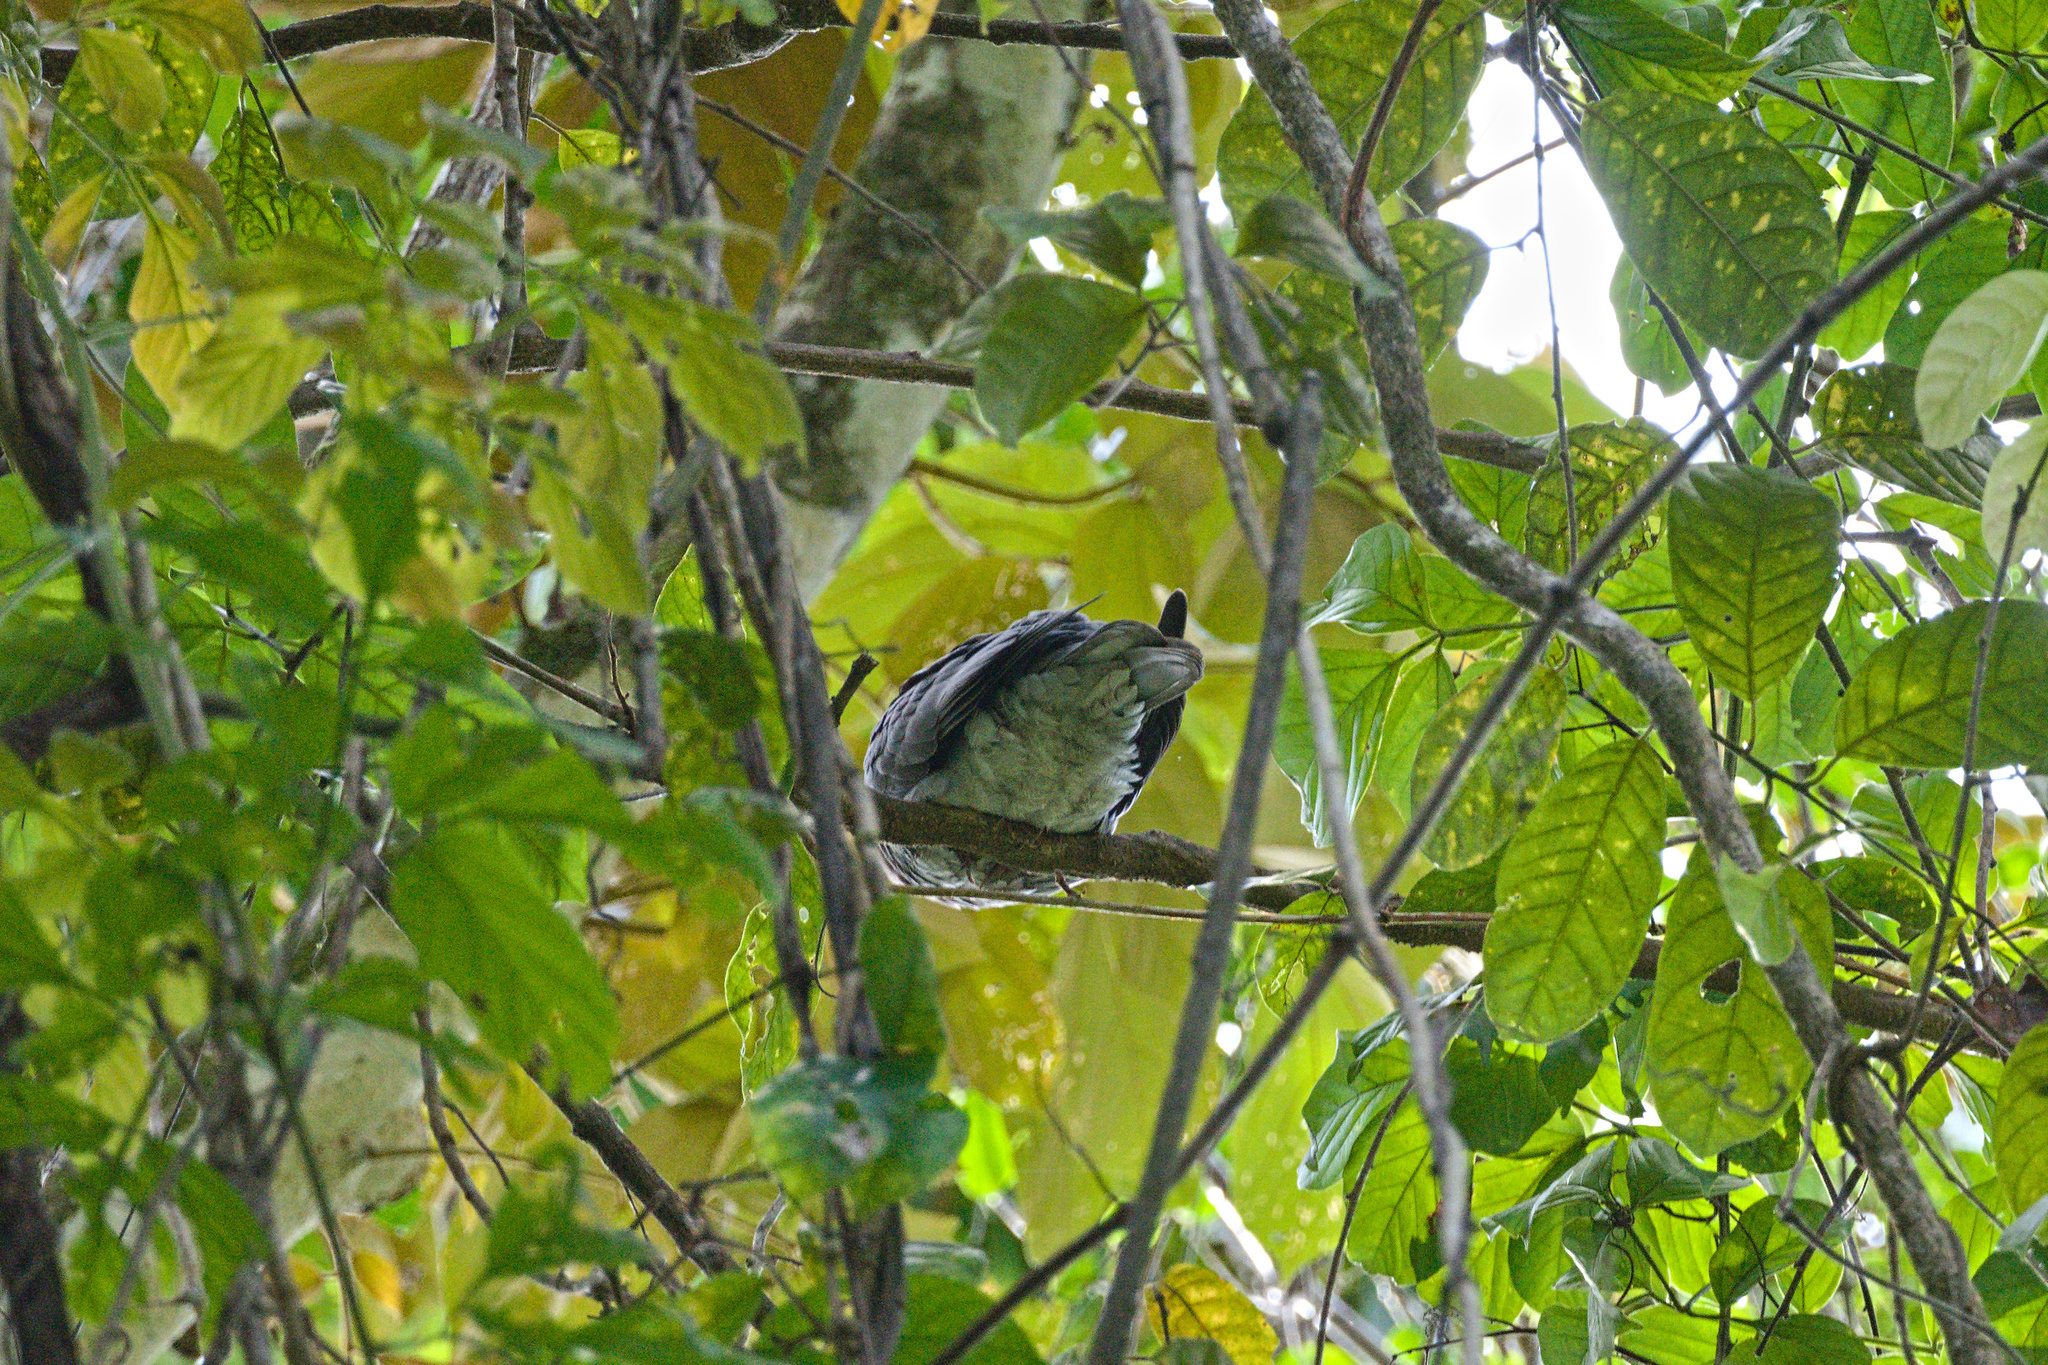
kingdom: Animalia
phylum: Chordata
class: Aves
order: Columbiformes
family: Columbidae
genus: Patagioenas
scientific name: Patagioenas cayennensis
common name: Pale-vented pigeon
